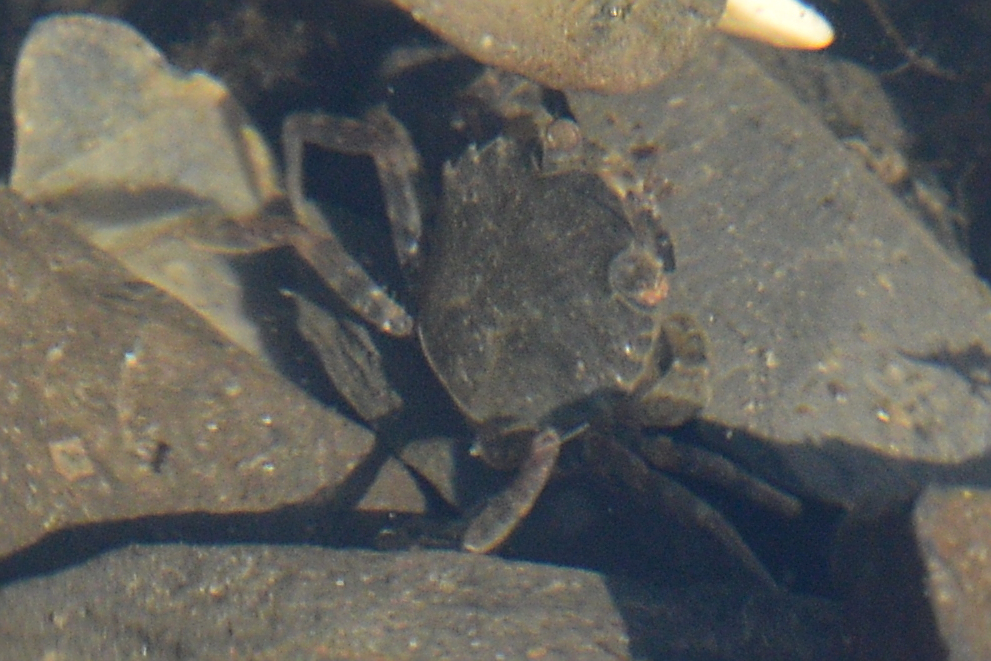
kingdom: Animalia
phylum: Arthropoda
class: Malacostraca
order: Decapoda
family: Carcinidae
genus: Carcinus
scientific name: Carcinus maenas
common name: European green crab
